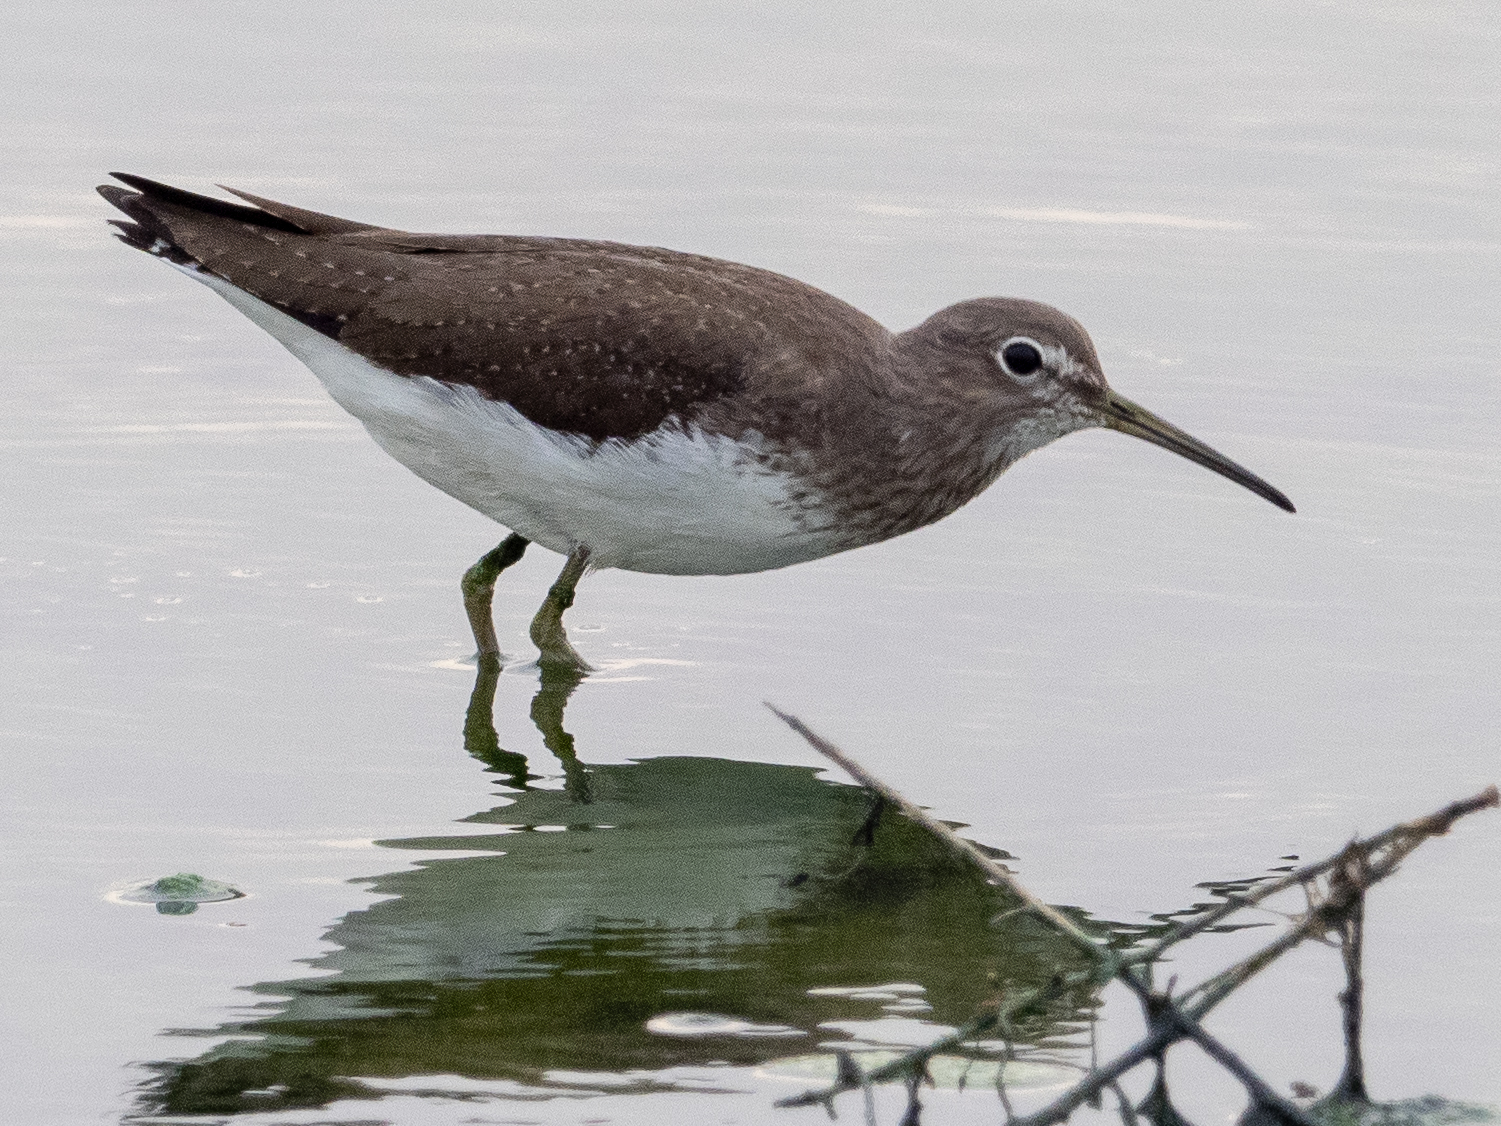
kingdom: Animalia
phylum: Chordata
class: Aves
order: Charadriiformes
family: Scolopacidae
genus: Tringa
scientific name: Tringa ochropus
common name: Green sandpiper
